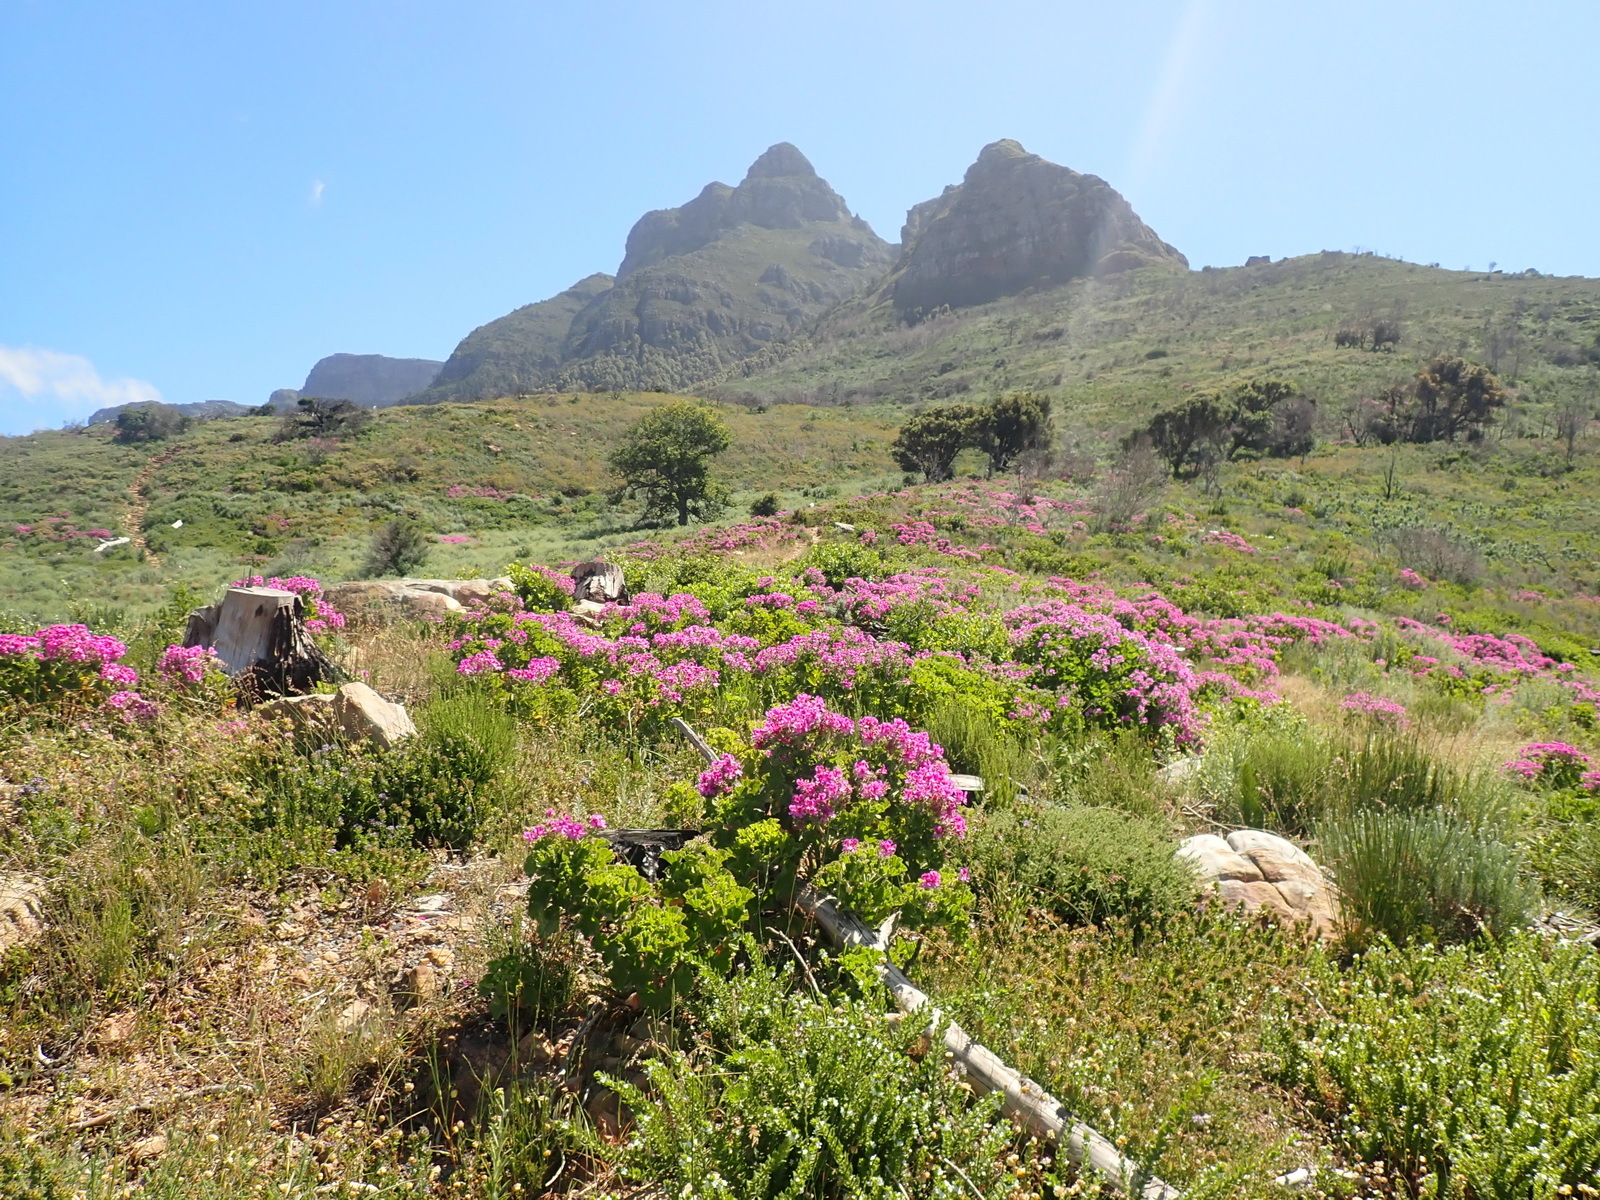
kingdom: Plantae
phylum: Tracheophyta
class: Magnoliopsida
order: Geraniales
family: Geraniaceae
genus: Pelargonium
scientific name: Pelargonium cucullatum
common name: Tree pelargonium
